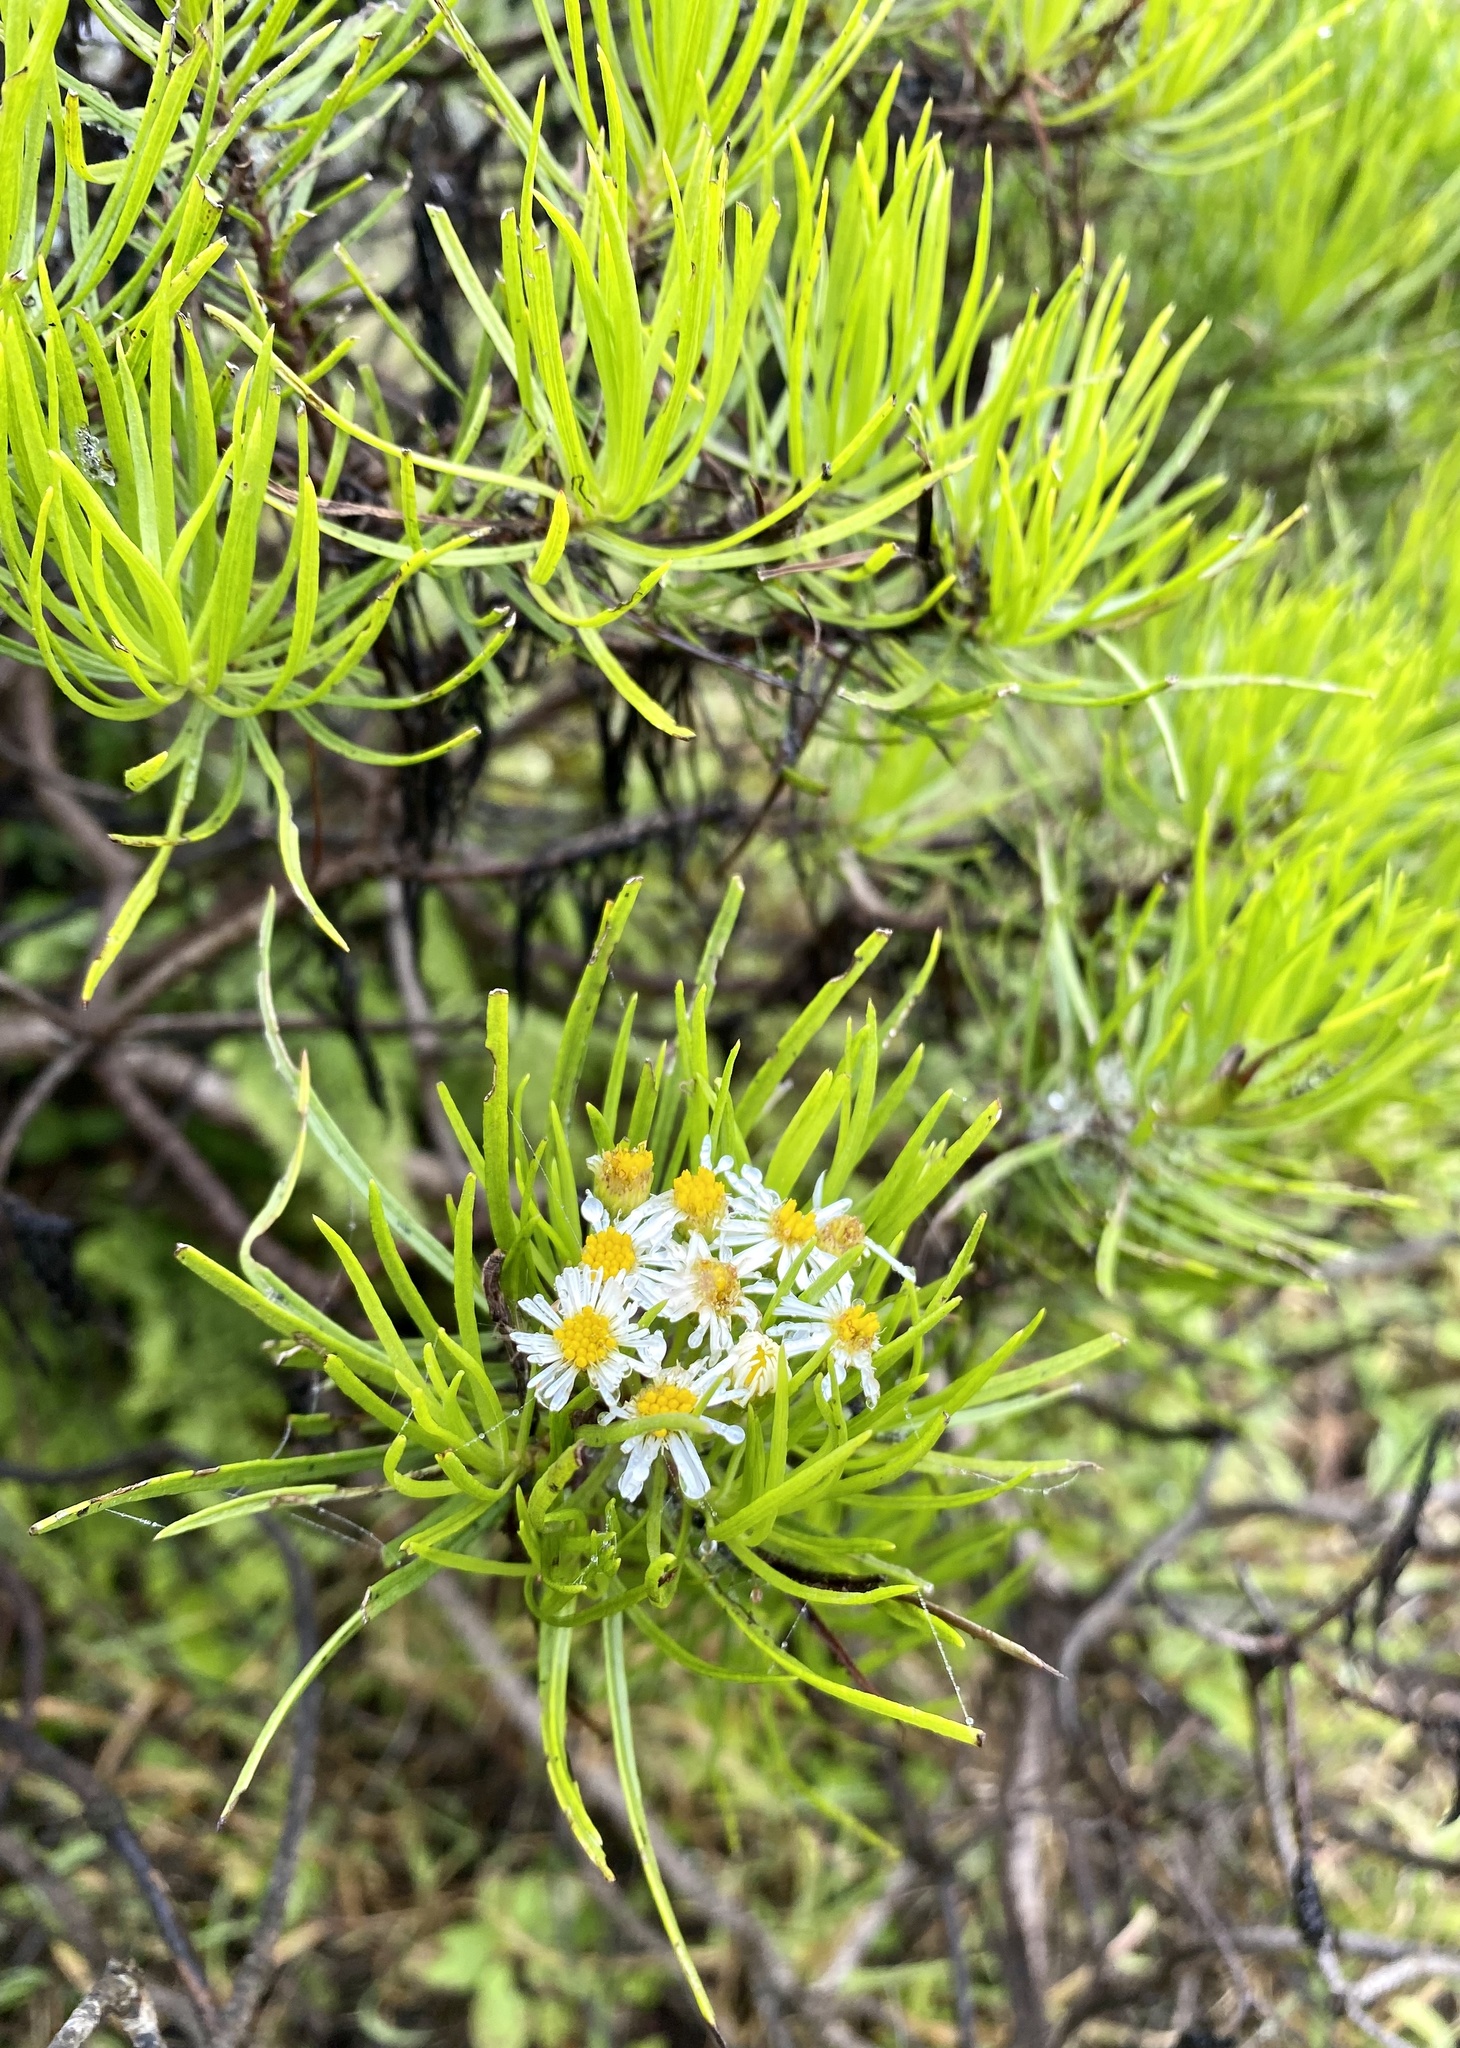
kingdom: Plantae
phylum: Tracheophyta
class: Magnoliopsida
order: Asterales
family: Asteraceae
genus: Erigeron
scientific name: Erigeron tenuifolius
